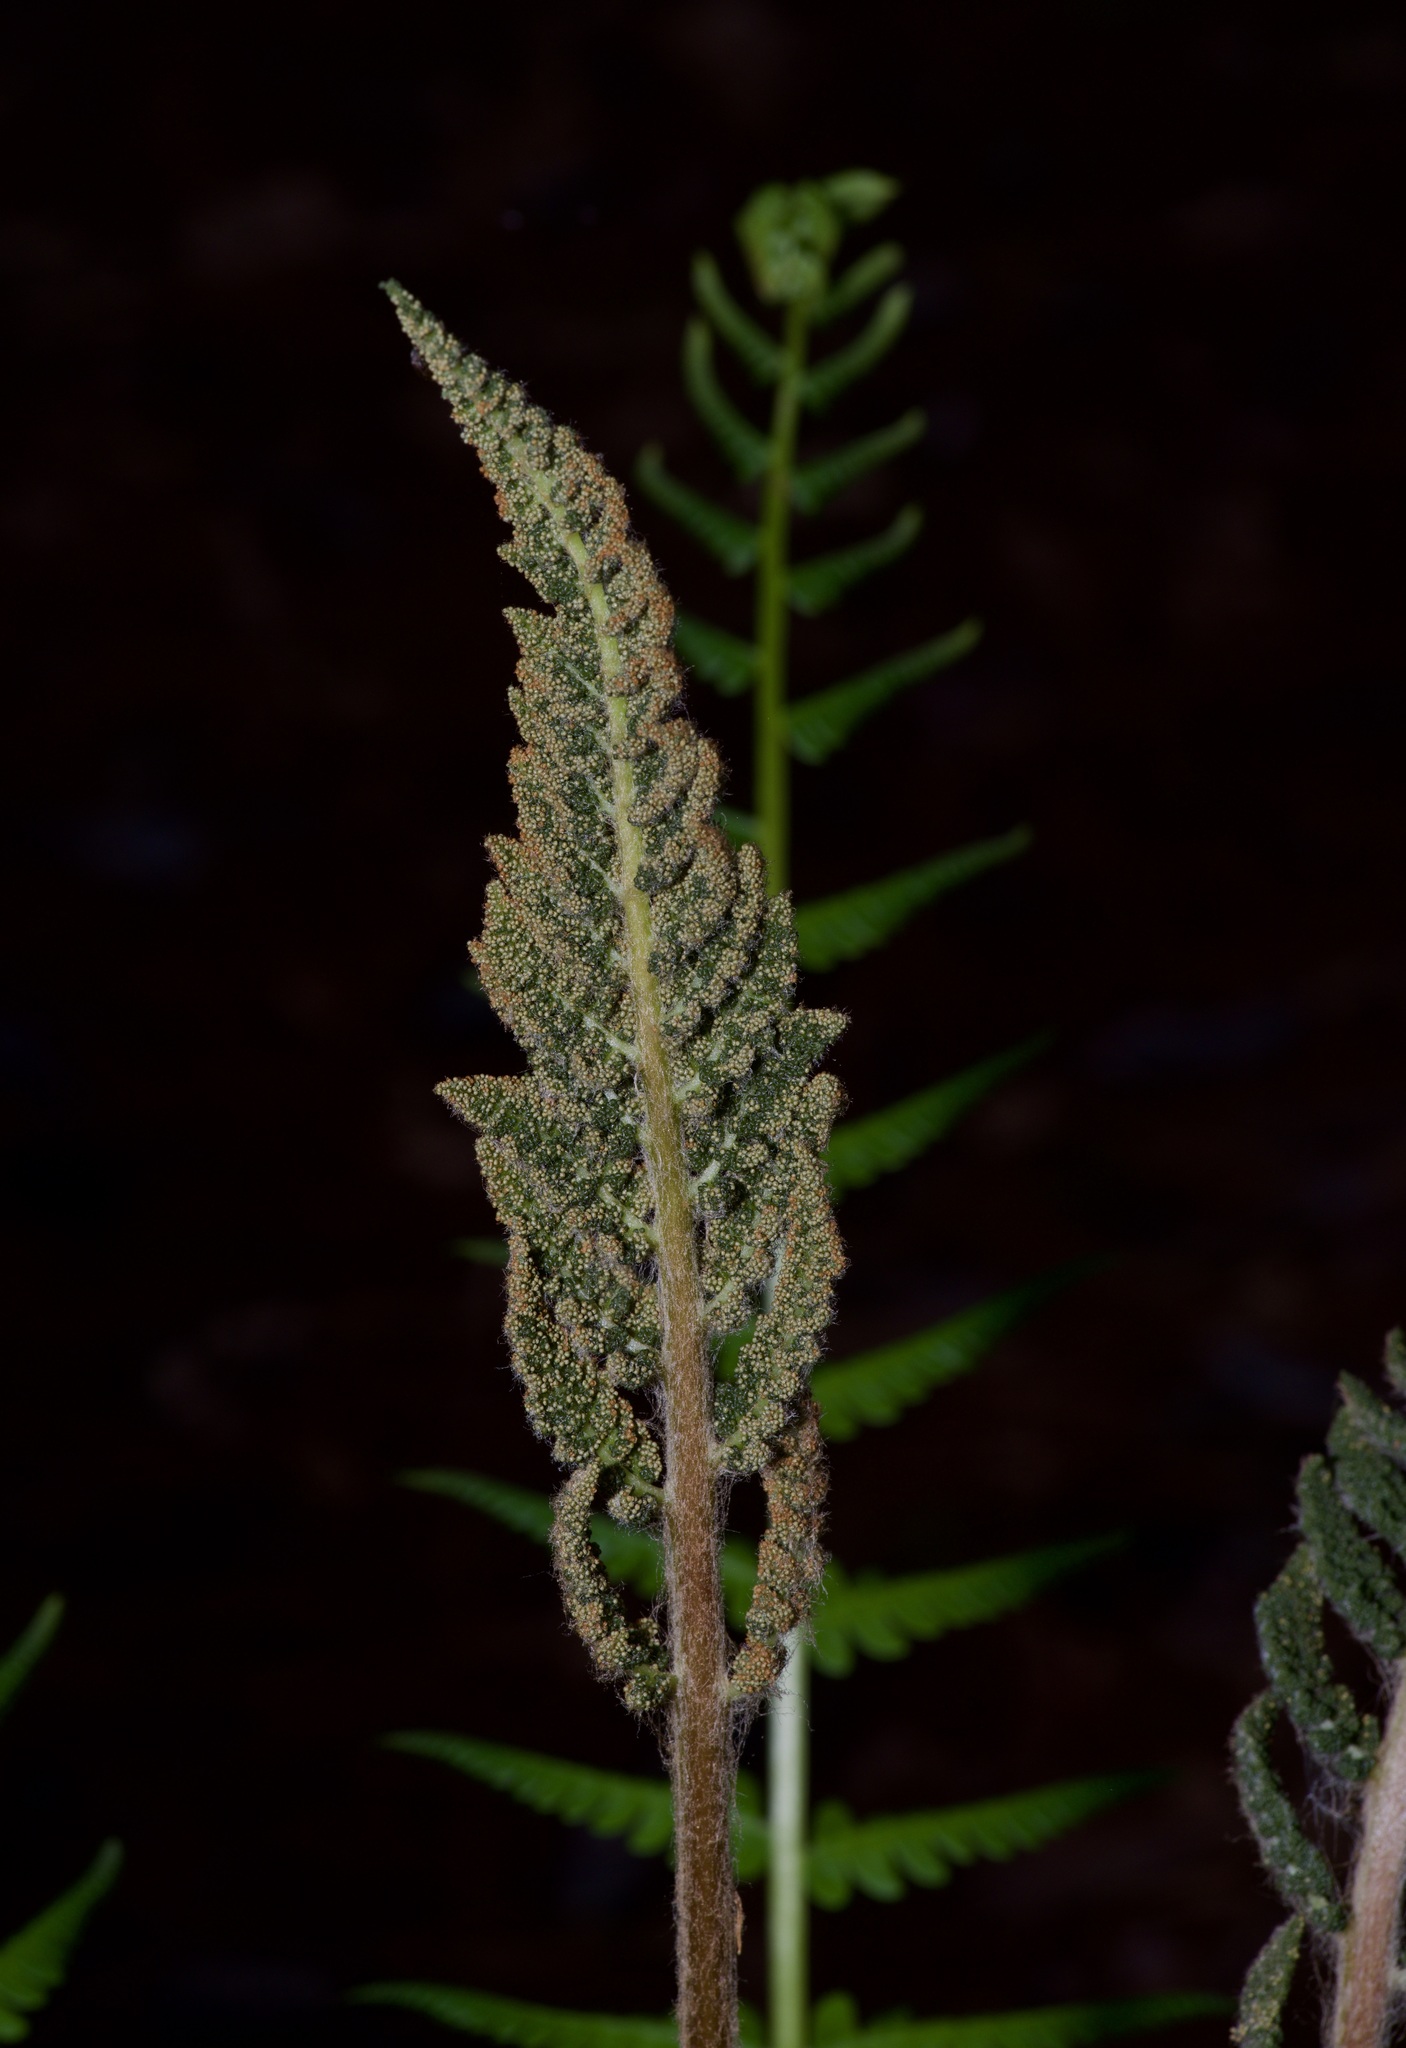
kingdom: Plantae
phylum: Tracheophyta
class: Polypodiopsida
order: Osmundales
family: Osmundaceae
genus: Osmundastrum
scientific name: Osmundastrum cinnamomeum
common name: Cinnamon fern
